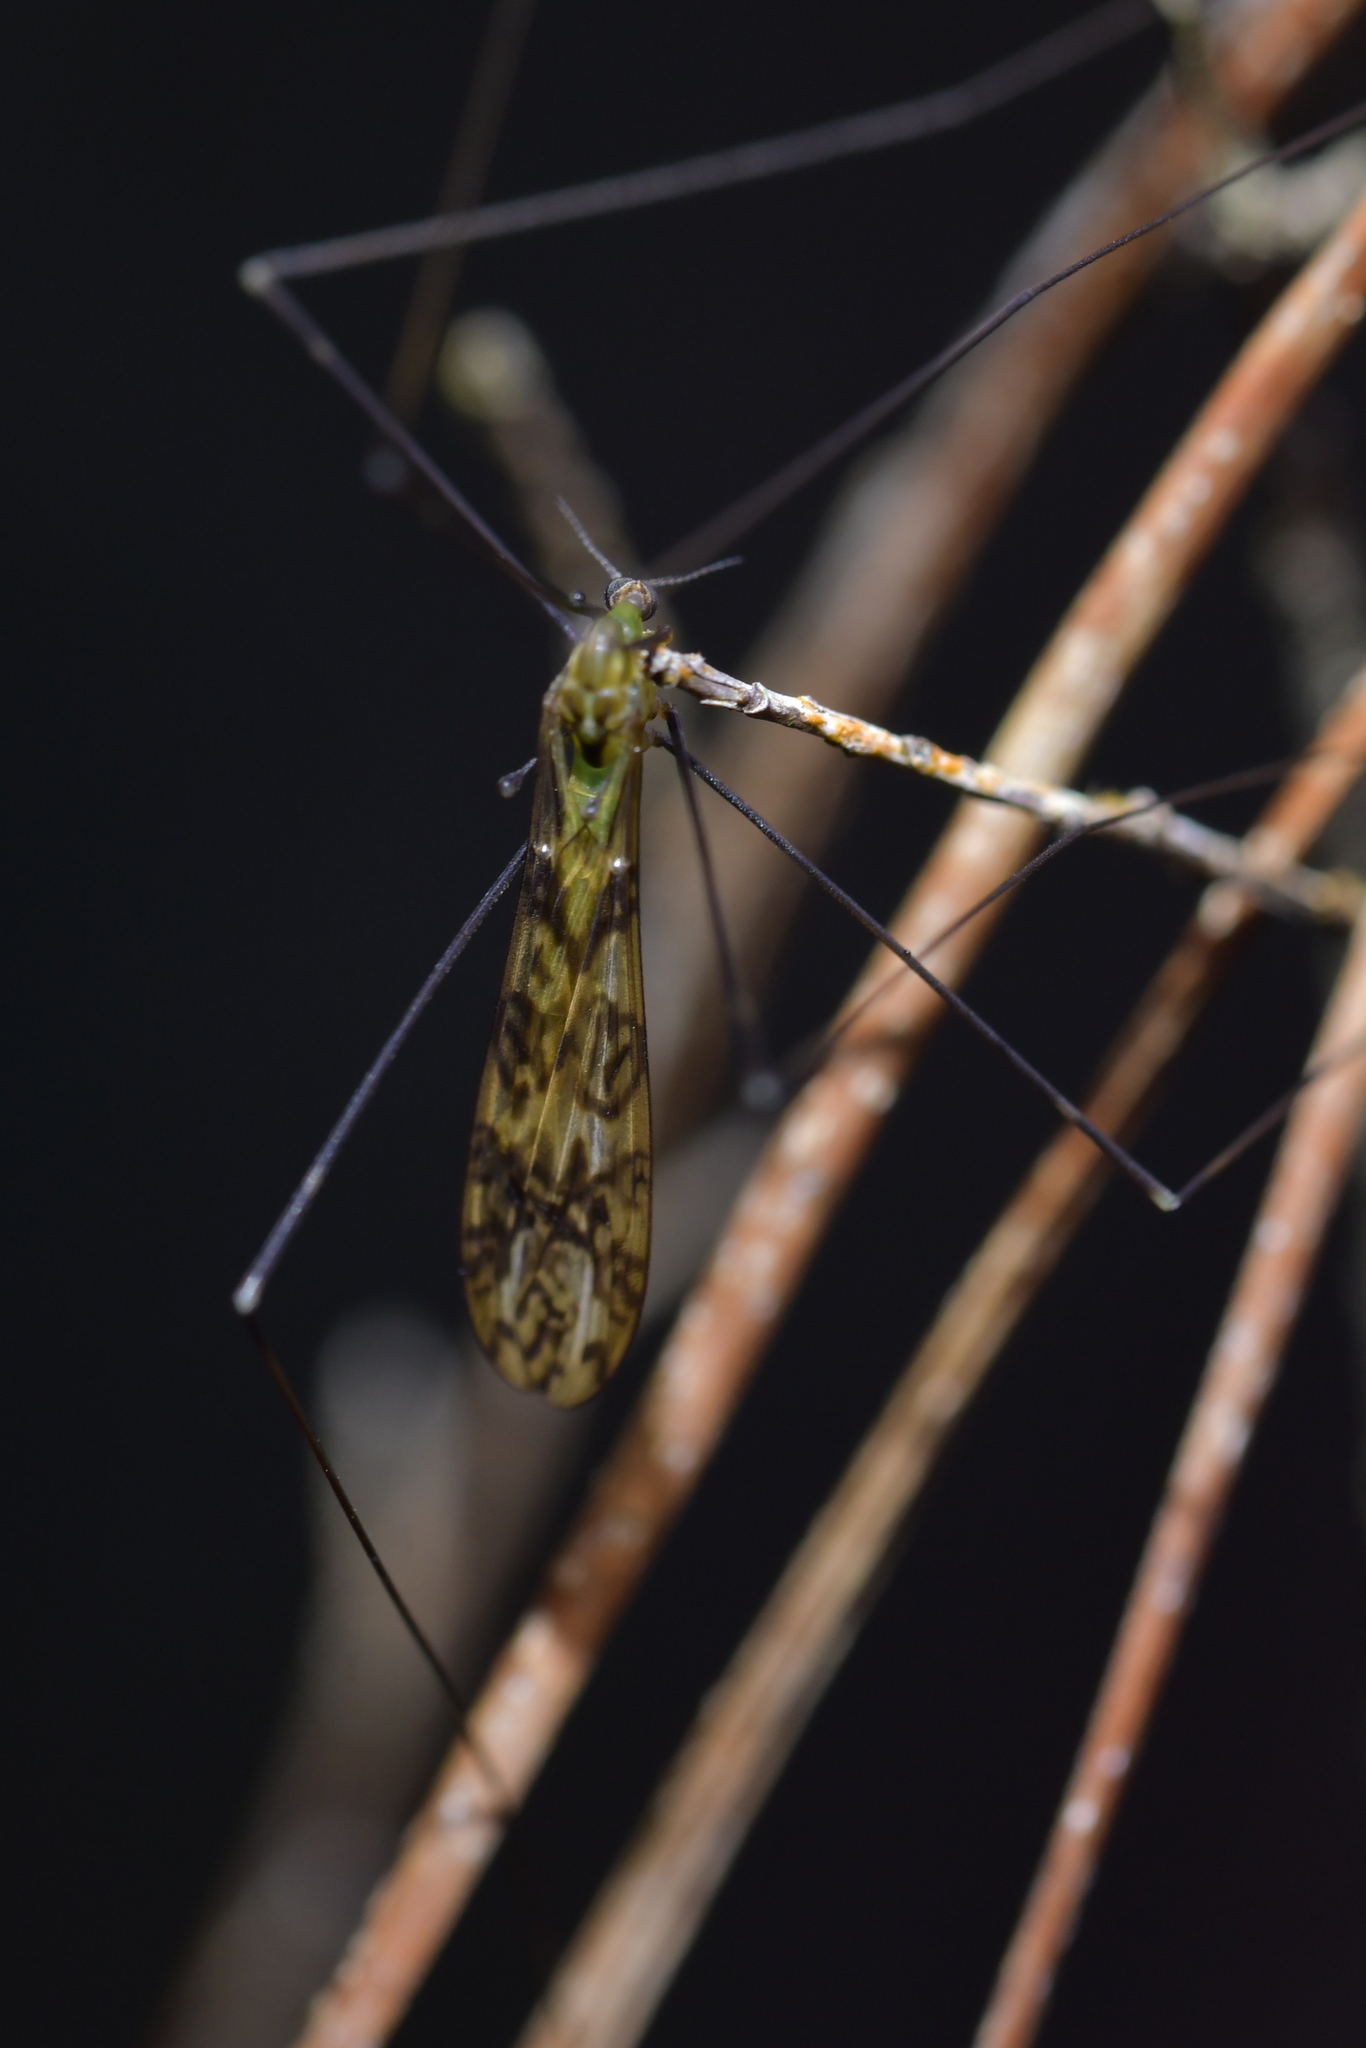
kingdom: Animalia
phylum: Arthropoda
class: Insecta
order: Diptera
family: Limoniidae
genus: Discobola
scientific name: Discobola tessellata
